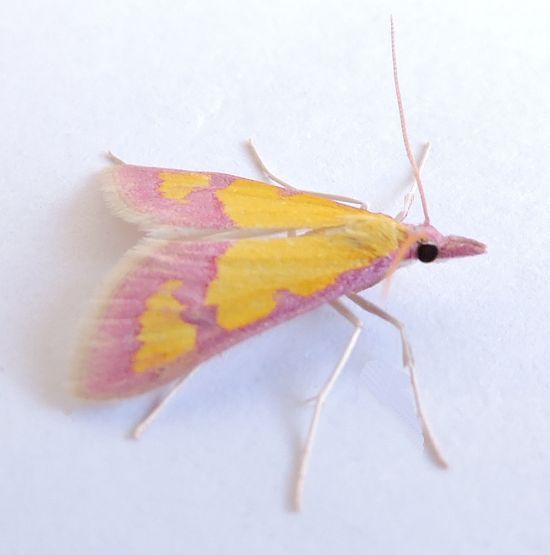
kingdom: Animalia
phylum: Arthropoda
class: Insecta
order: Lepidoptera
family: Crambidae
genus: Choristostigma
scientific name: Choristostigma roseopennalis
